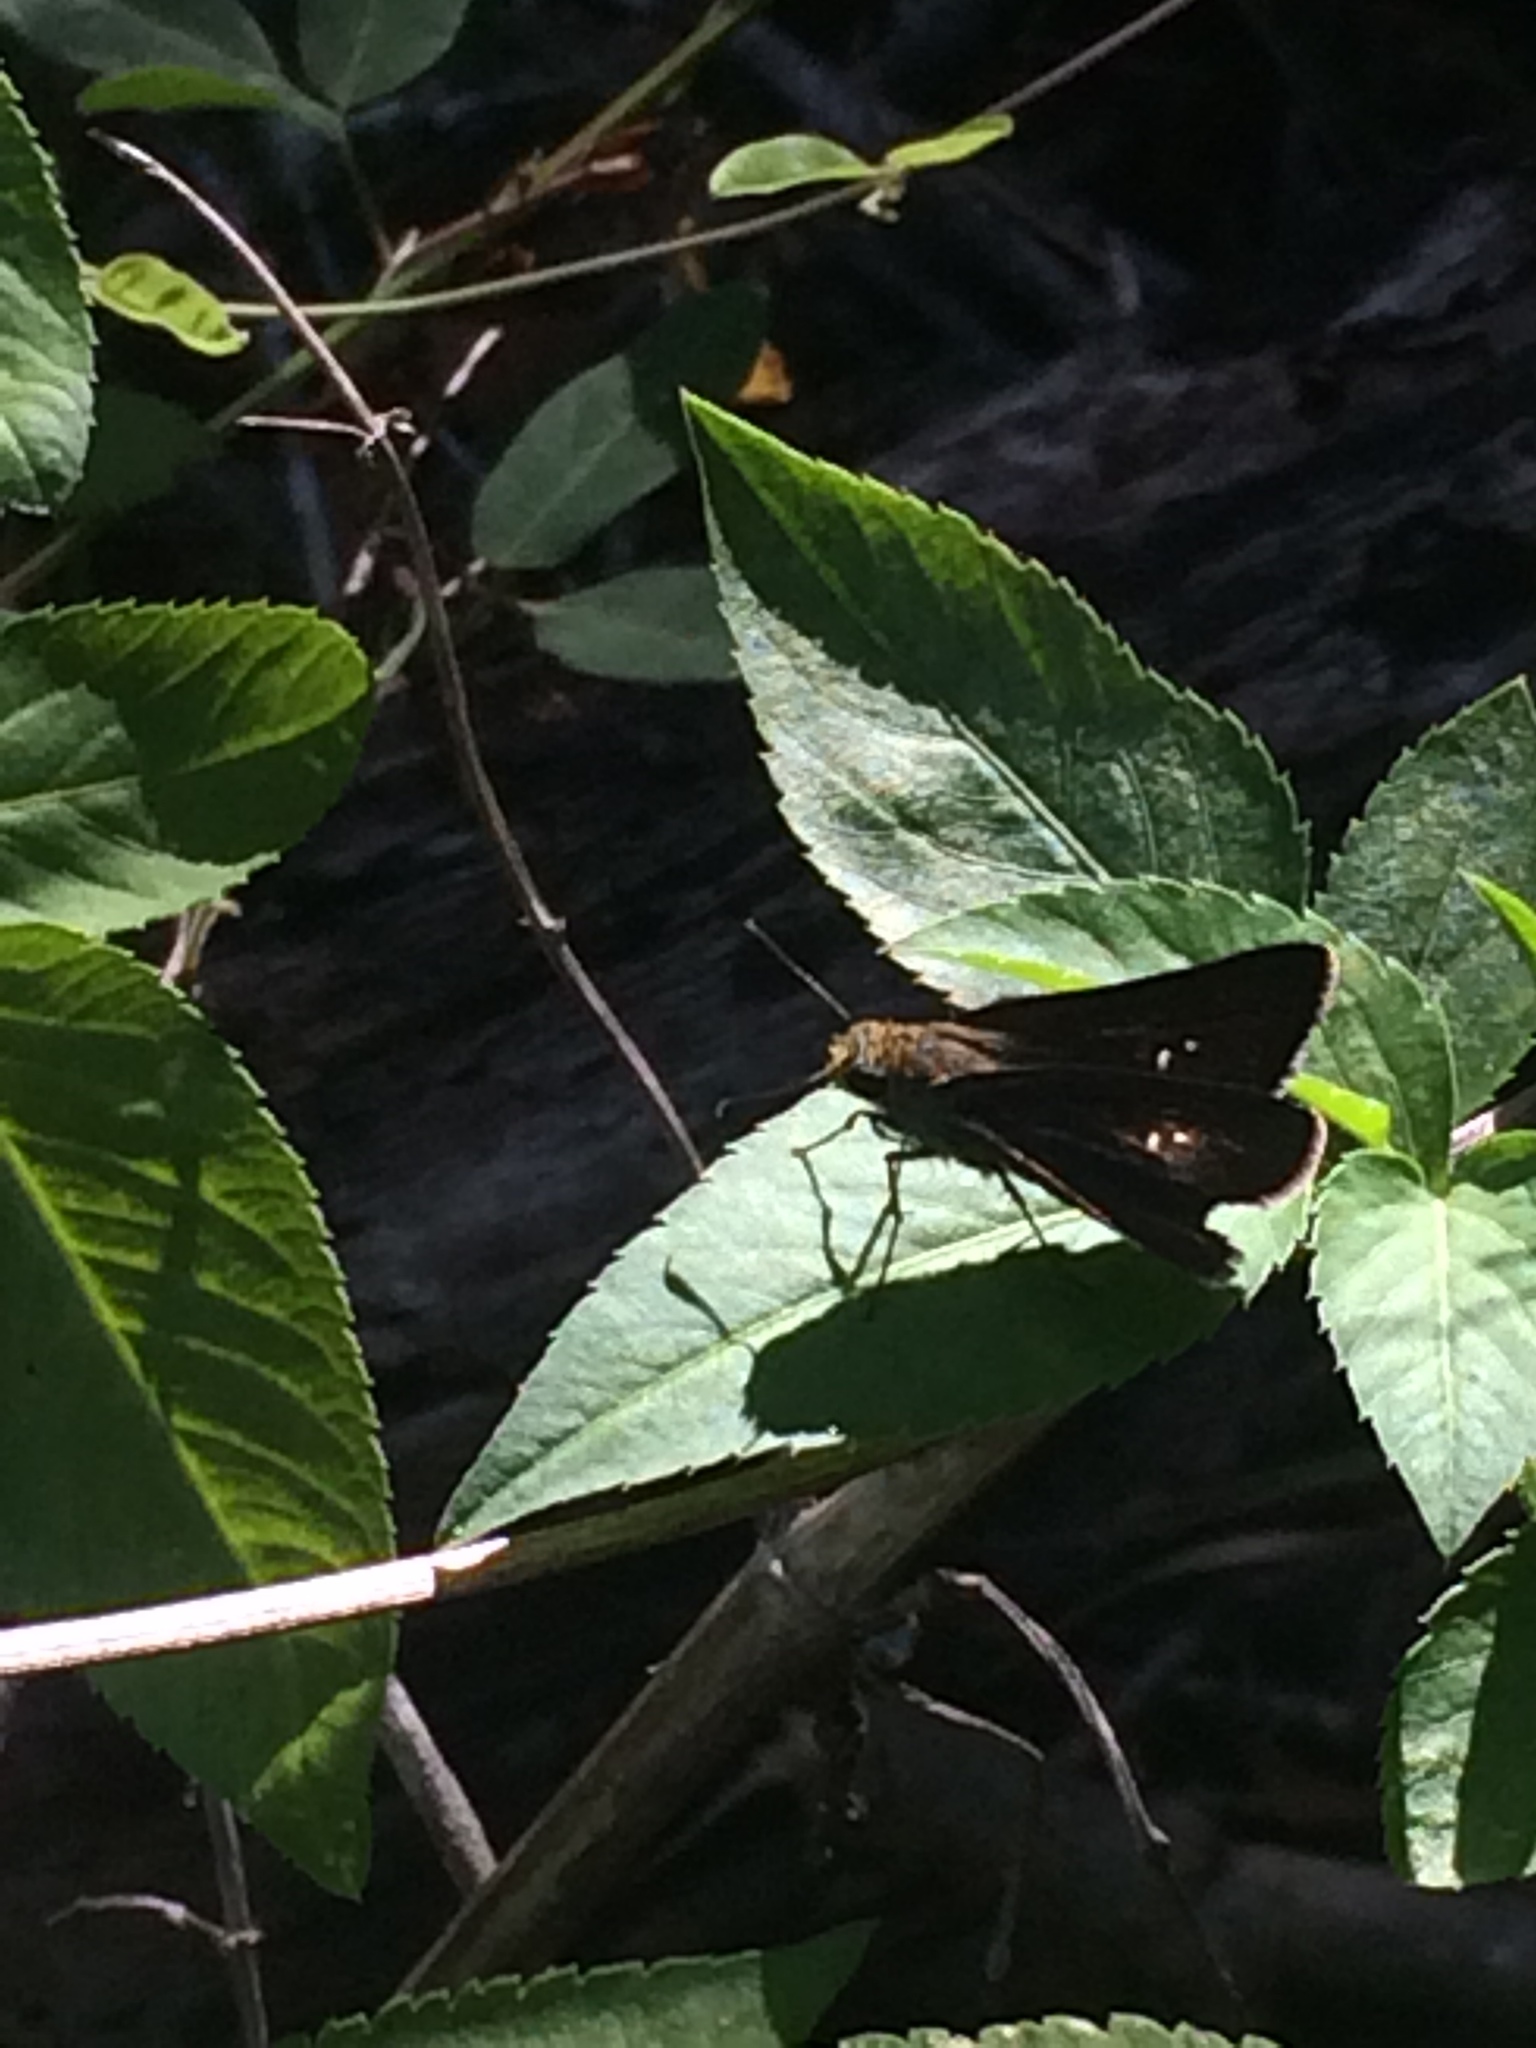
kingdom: Animalia
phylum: Arthropoda
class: Insecta
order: Lepidoptera
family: Hesperiidae
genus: Euphyes
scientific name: Euphyes vestris
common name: Dun skipper
